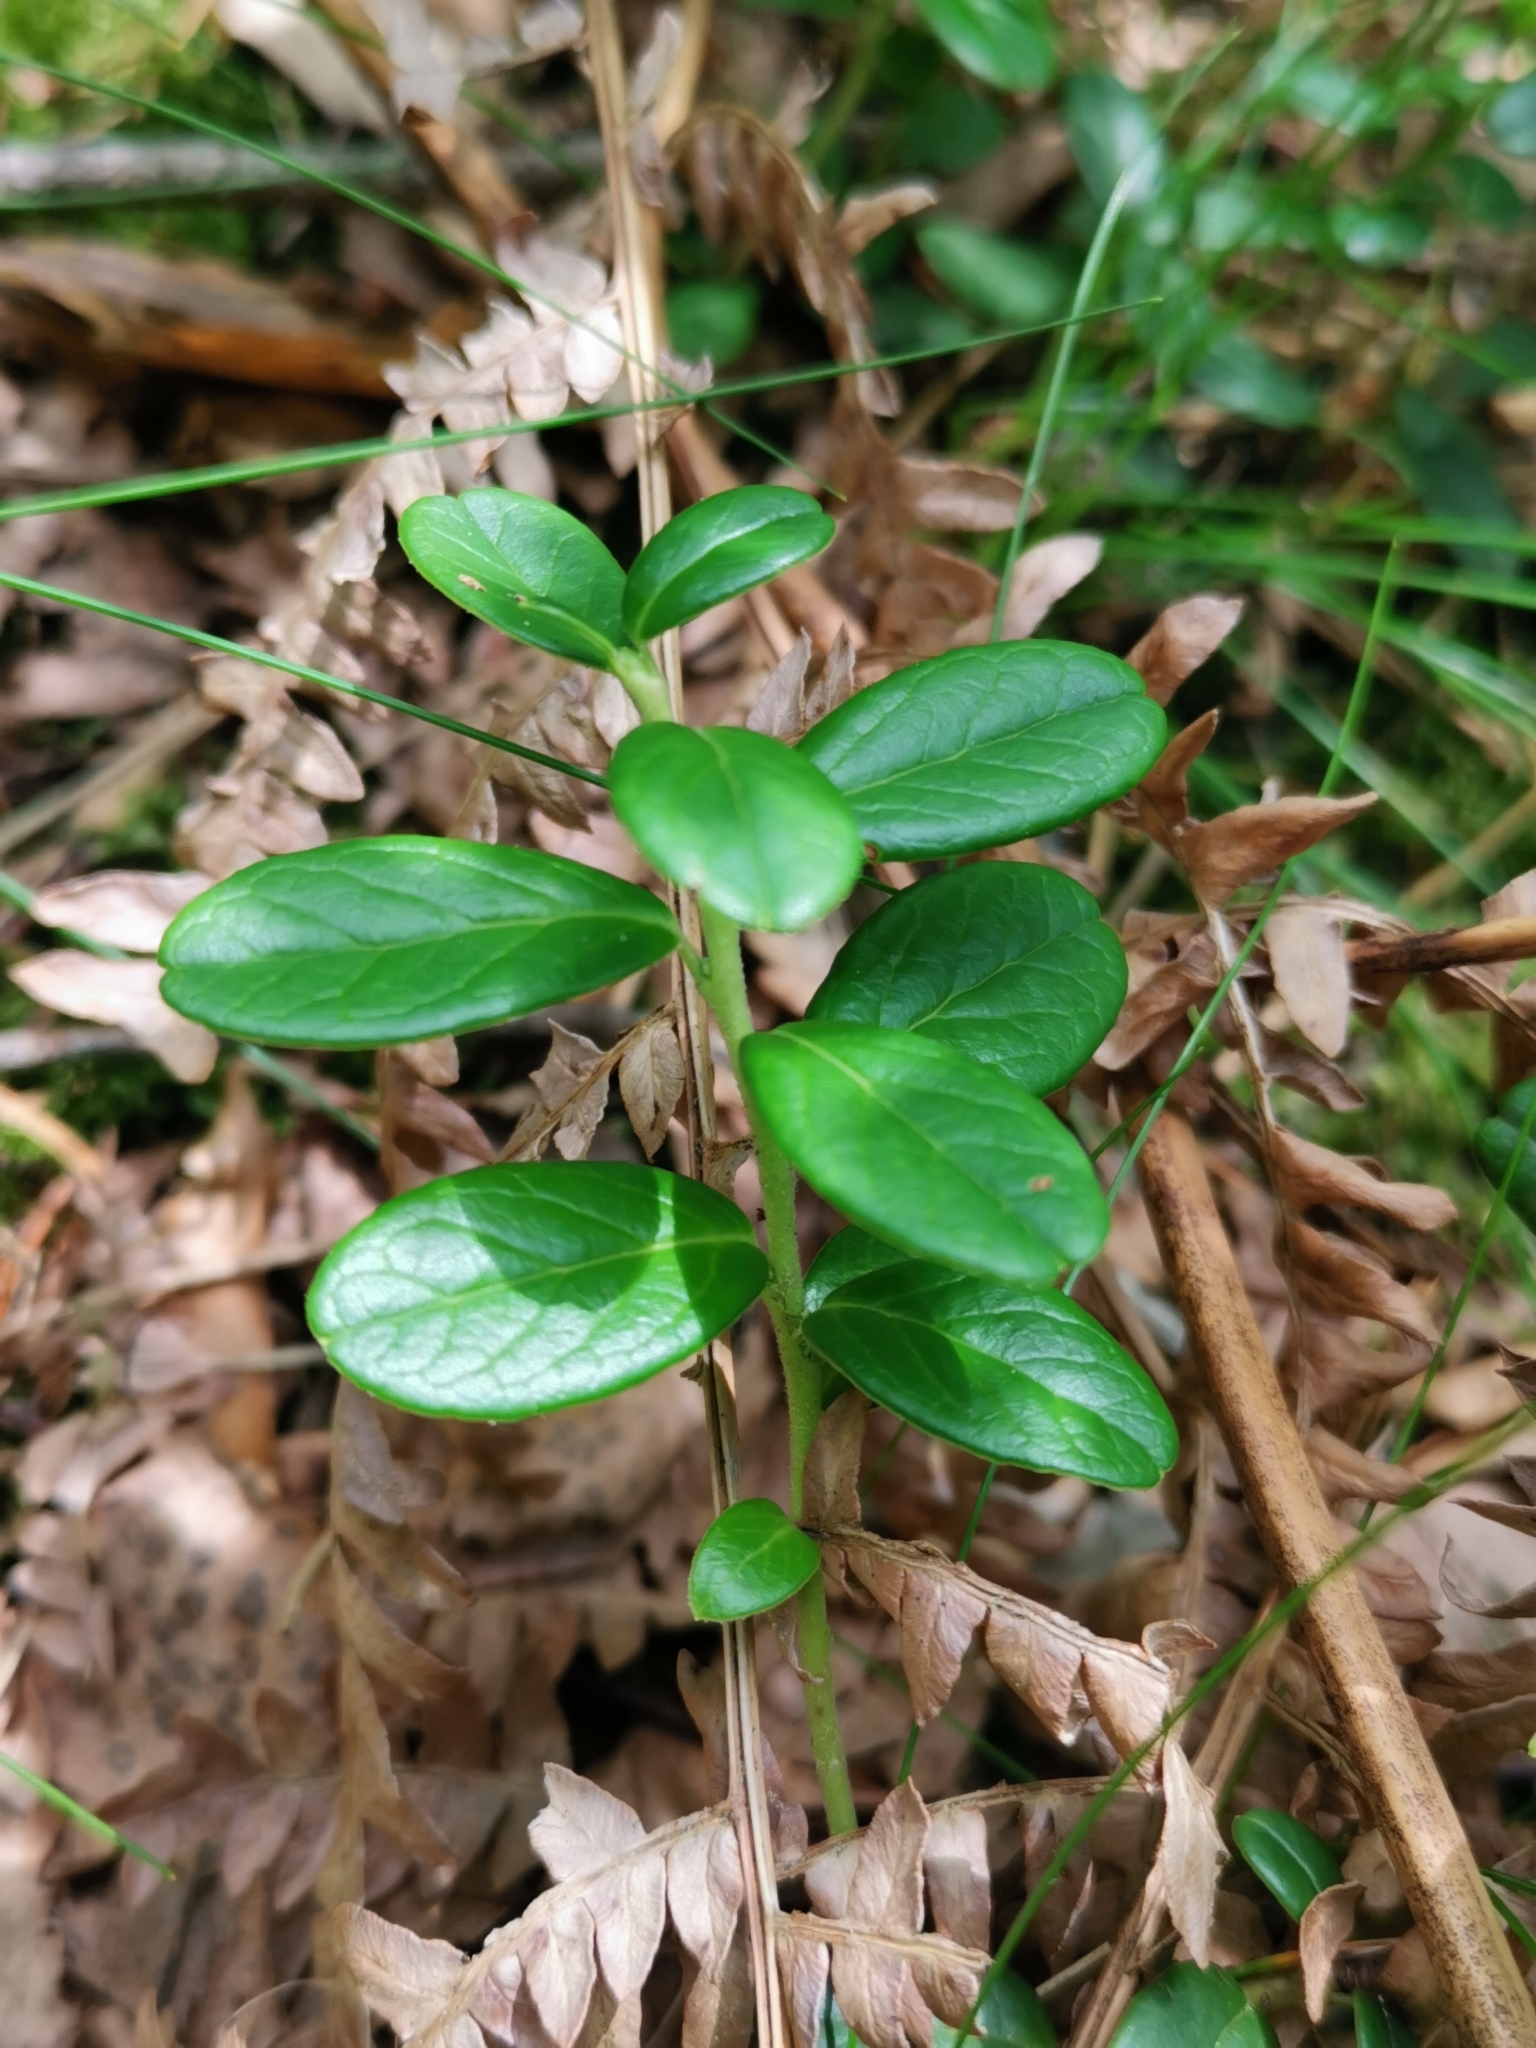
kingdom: Plantae
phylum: Tracheophyta
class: Magnoliopsida
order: Ericales
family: Ericaceae
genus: Vaccinium
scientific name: Vaccinium vitis-idaea
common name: Cowberry
